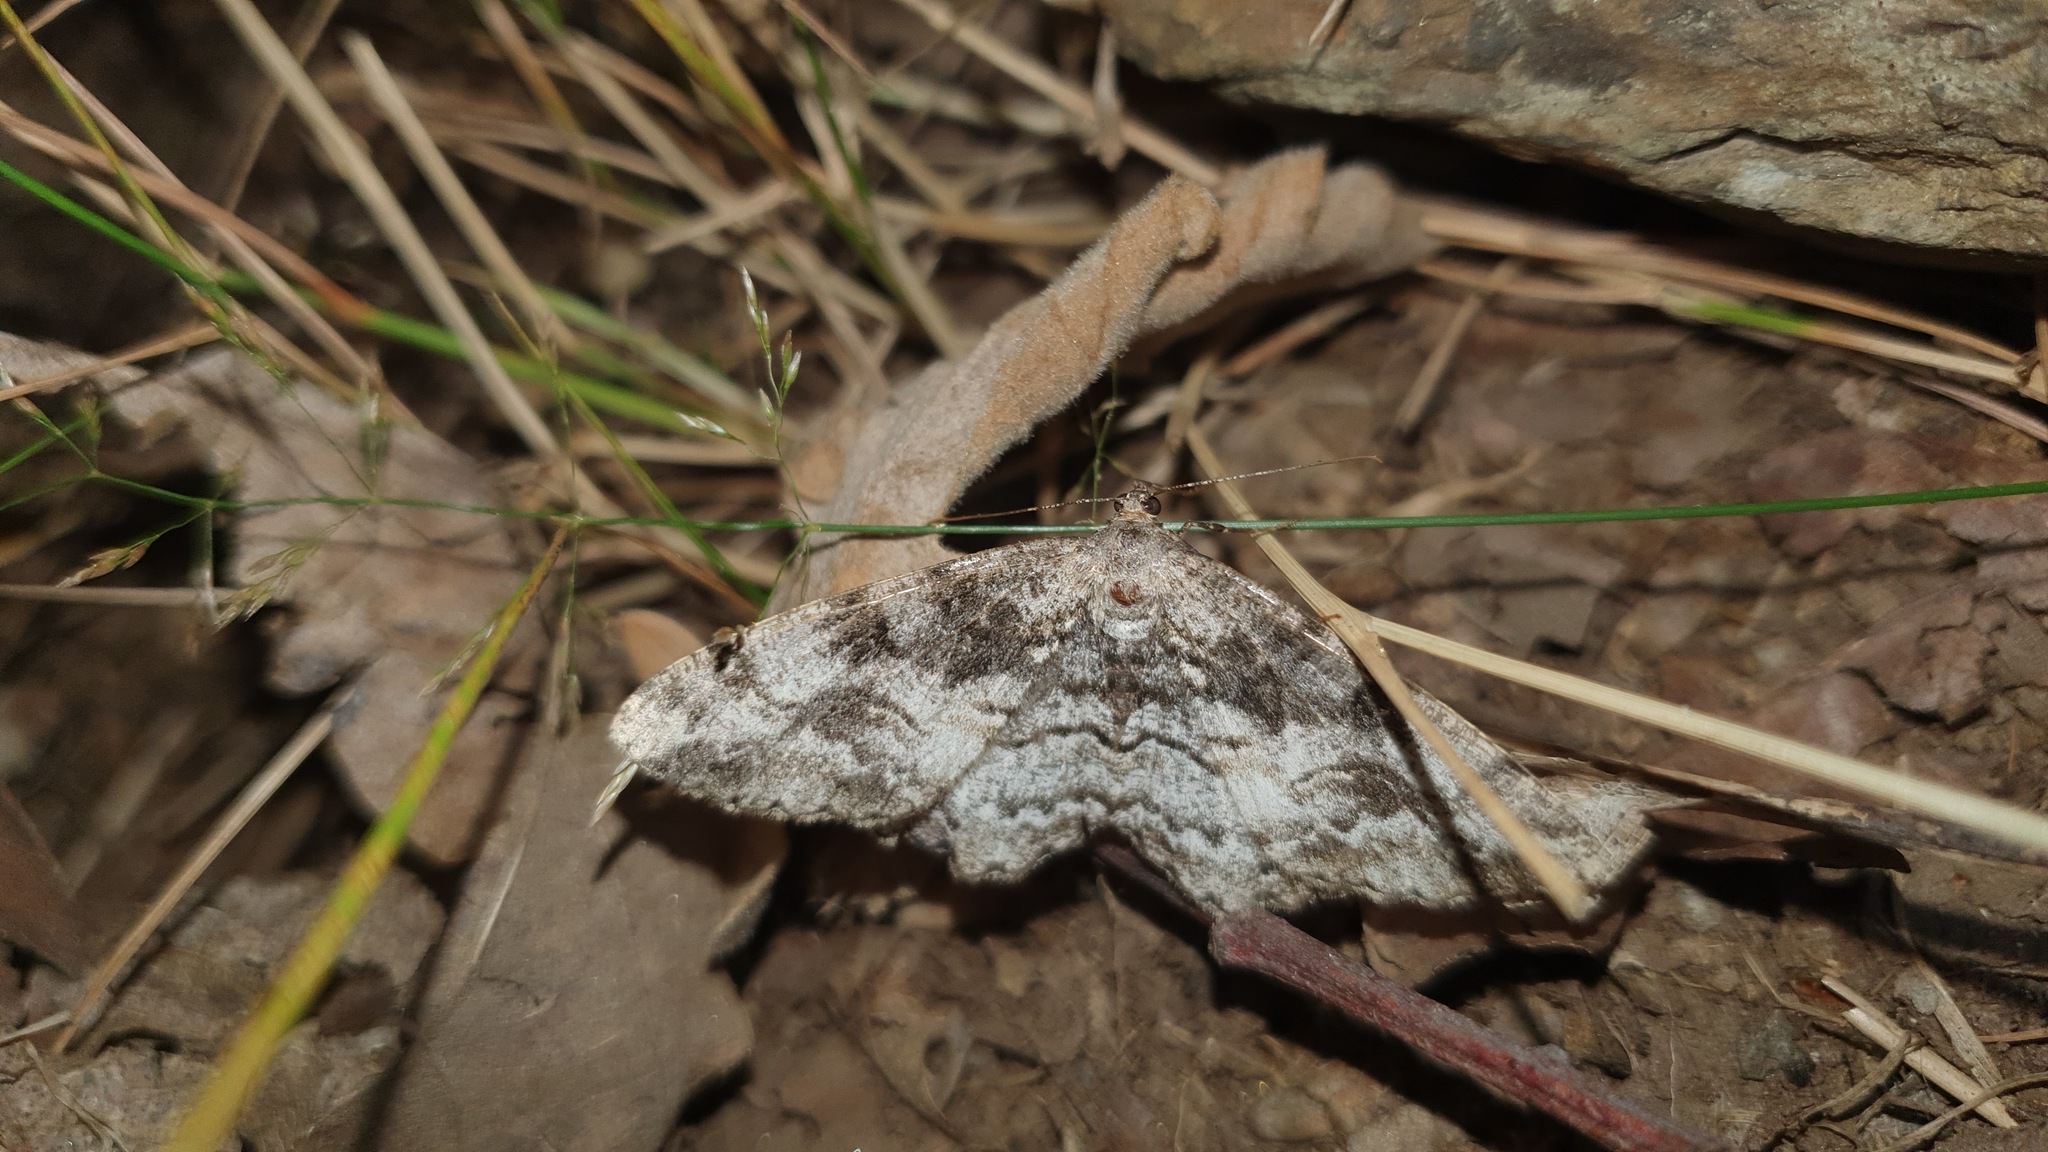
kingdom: Animalia
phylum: Arthropoda
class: Insecta
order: Lepidoptera
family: Geometridae
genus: Alcis
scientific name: Alcis repandata
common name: Mottled beauty
